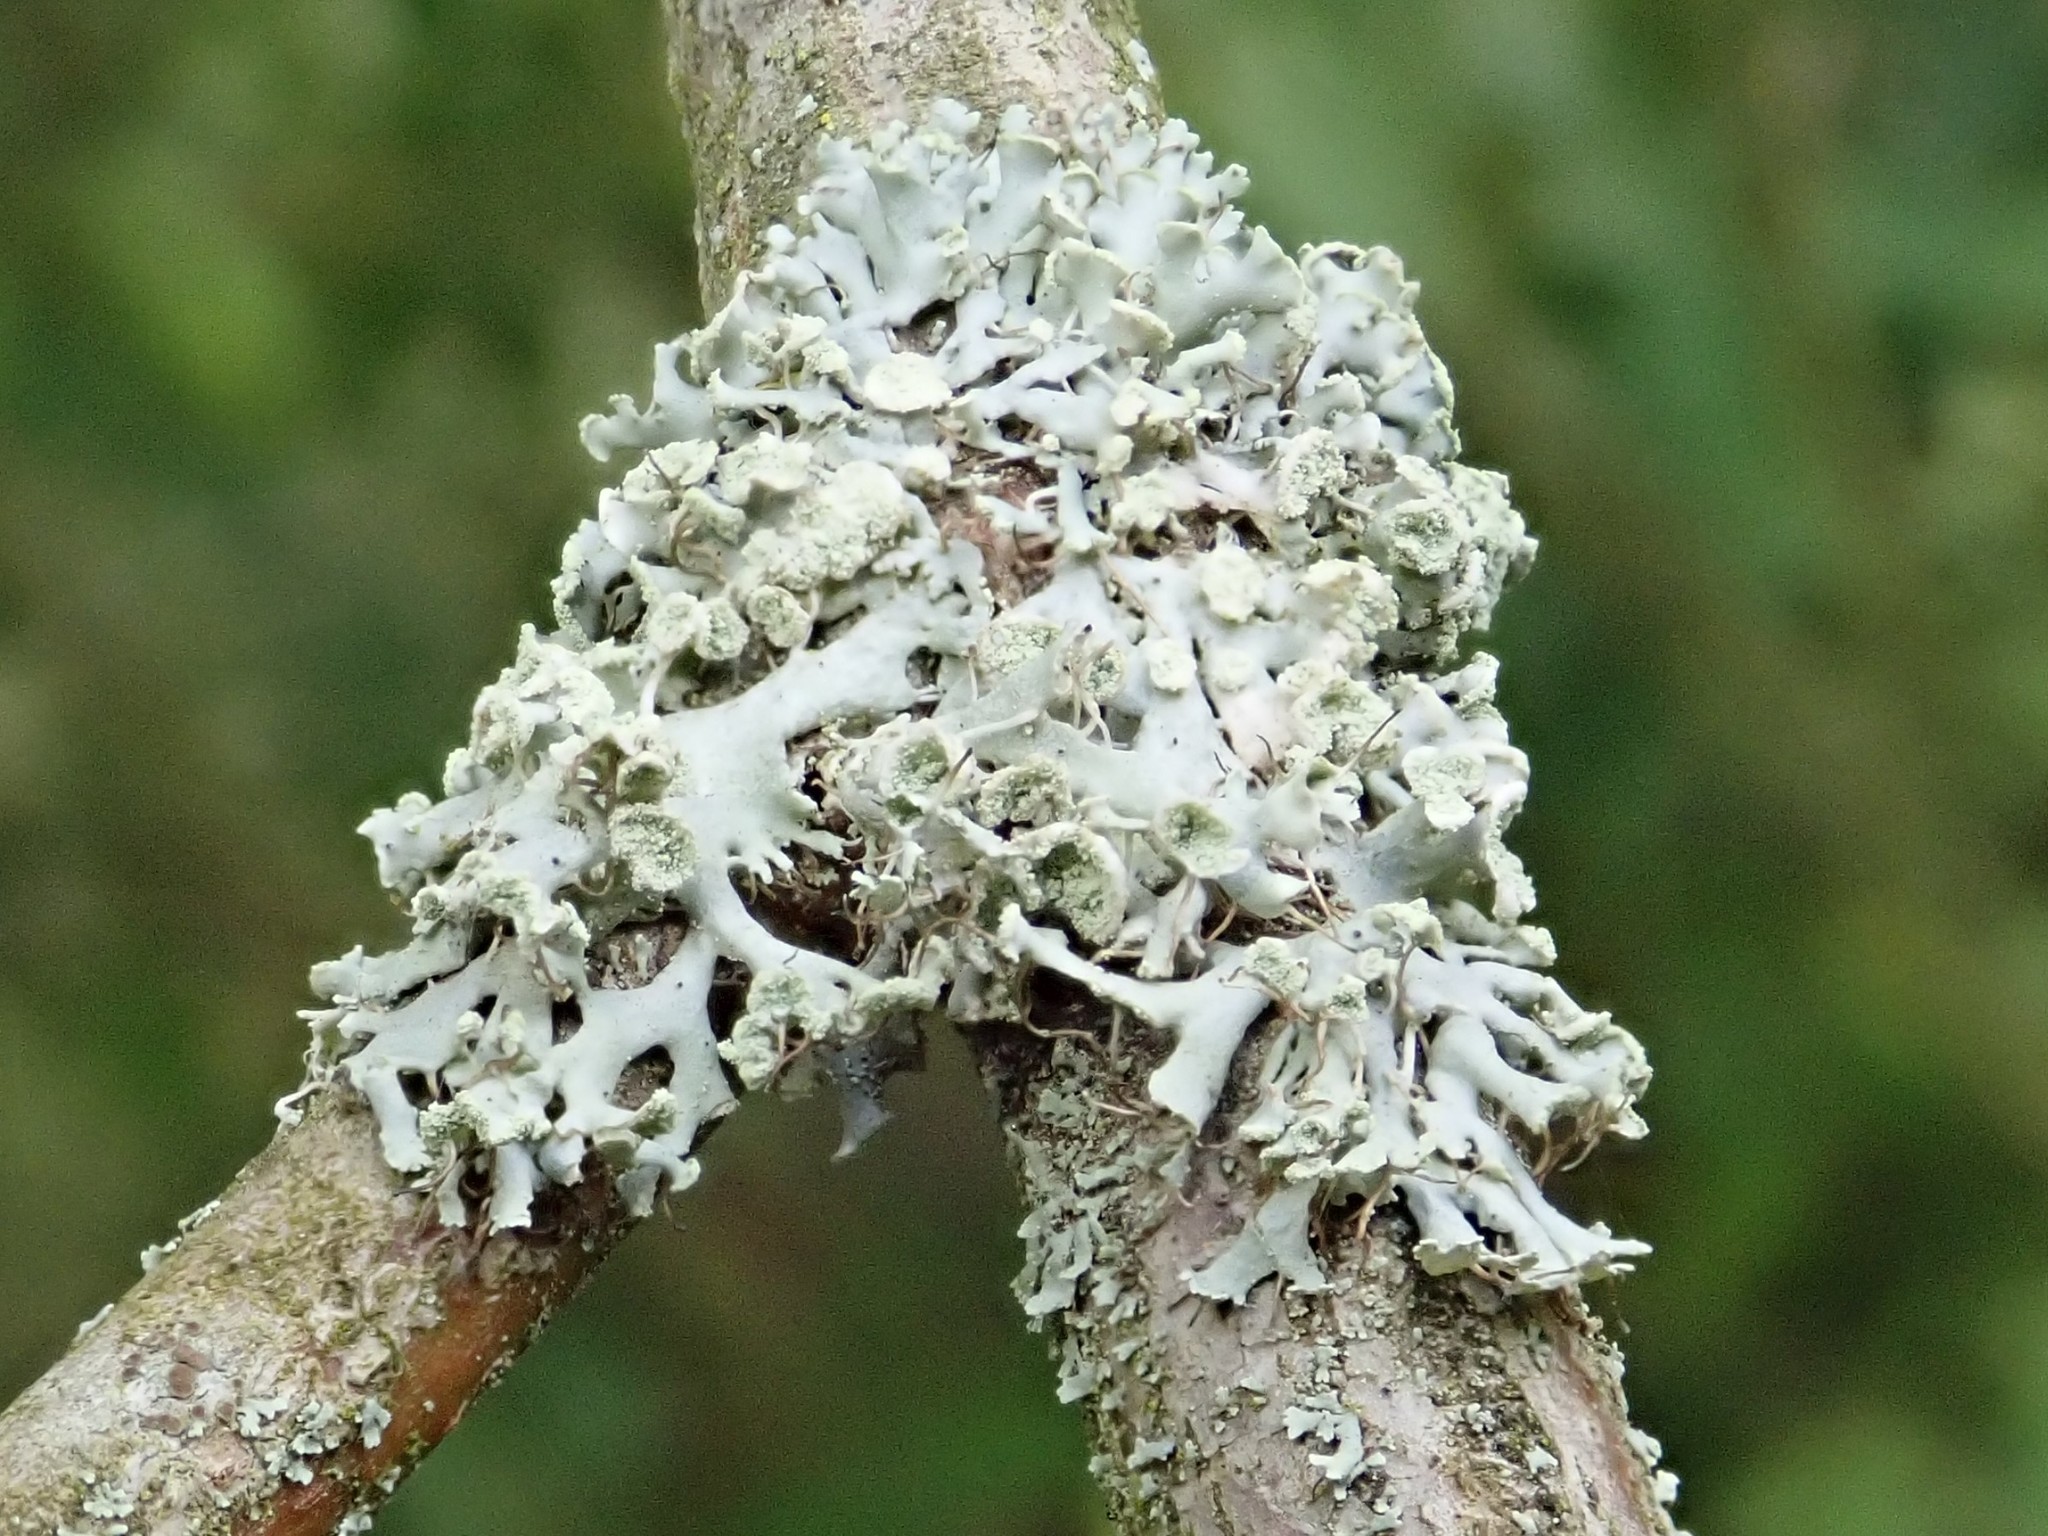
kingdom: Fungi
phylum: Ascomycota
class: Lecanoromycetes
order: Caliciales
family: Physciaceae
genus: Physcia
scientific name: Physcia adscendens
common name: Hooded rosette lichen
